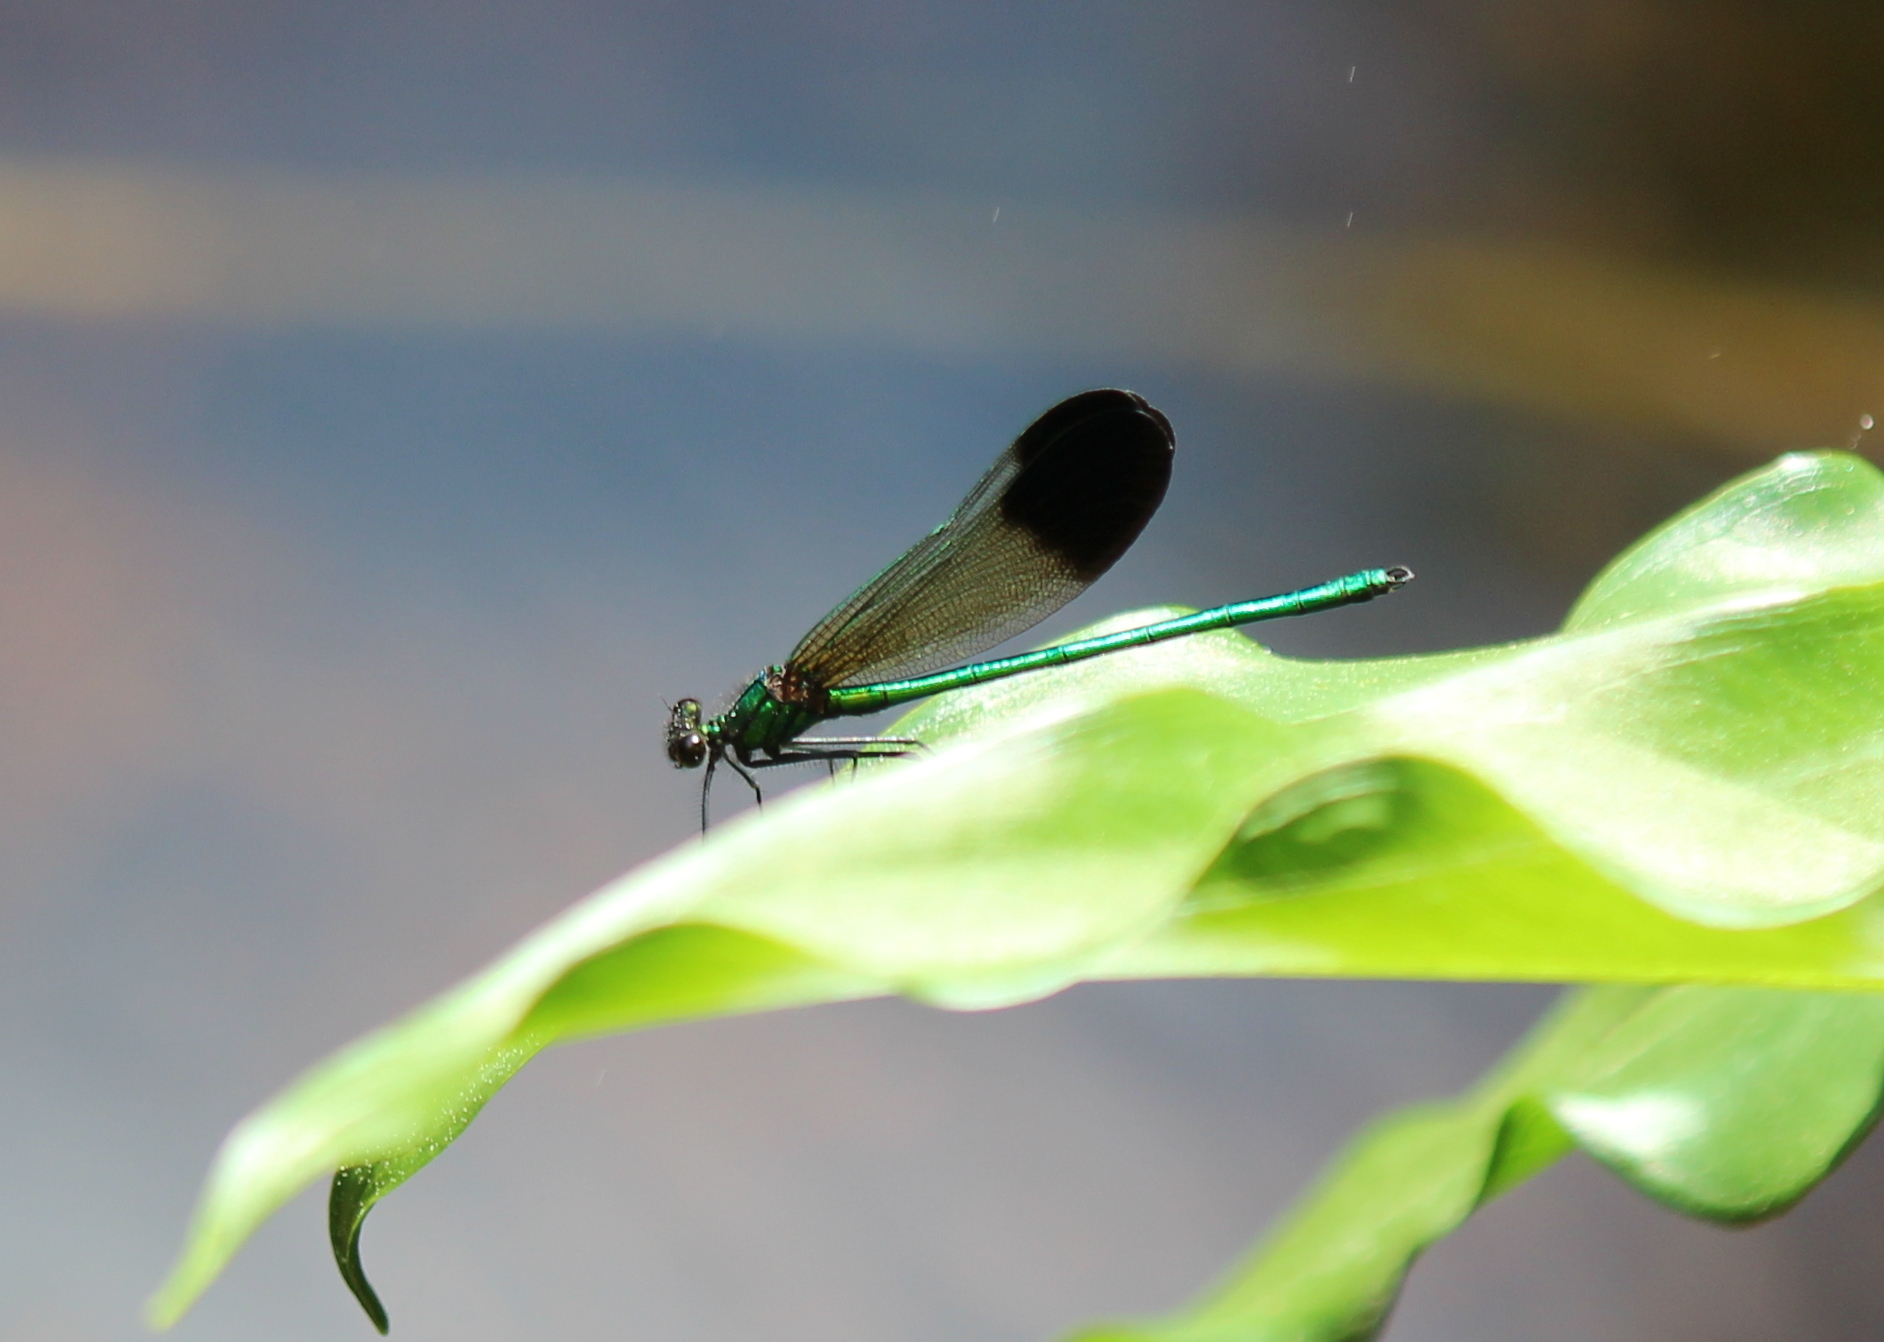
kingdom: Animalia
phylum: Arthropoda
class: Insecta
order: Odonata
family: Calopterygidae
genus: Calopteryx
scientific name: Calopteryx aequabilis
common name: River jewelwing
